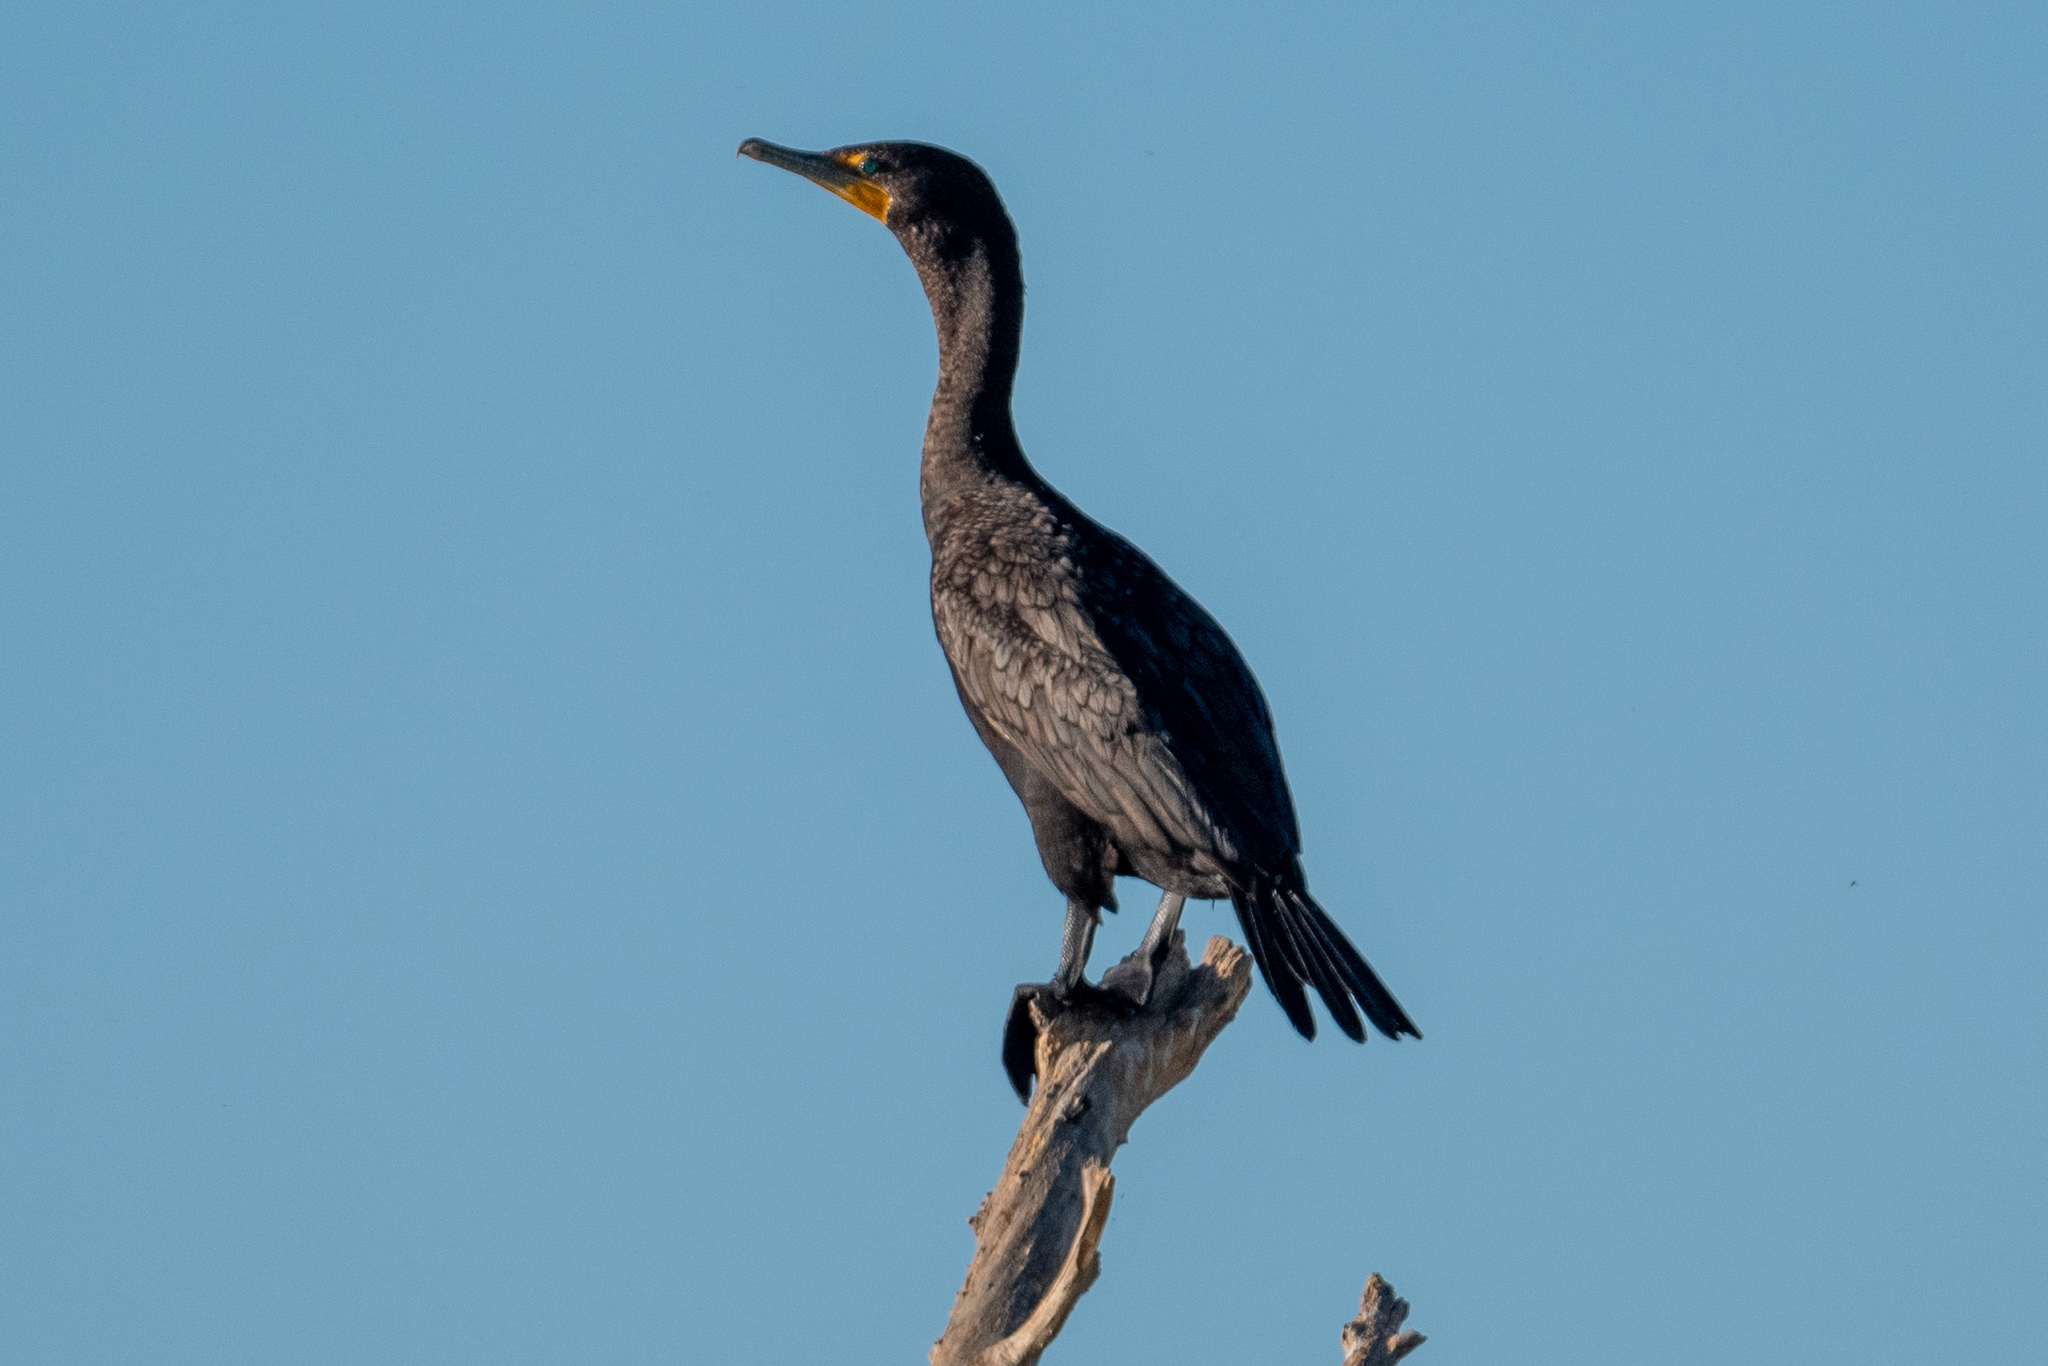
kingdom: Animalia
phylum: Chordata
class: Aves
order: Suliformes
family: Phalacrocoracidae
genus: Phalacrocorax
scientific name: Phalacrocorax auritus
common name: Double-crested cormorant
